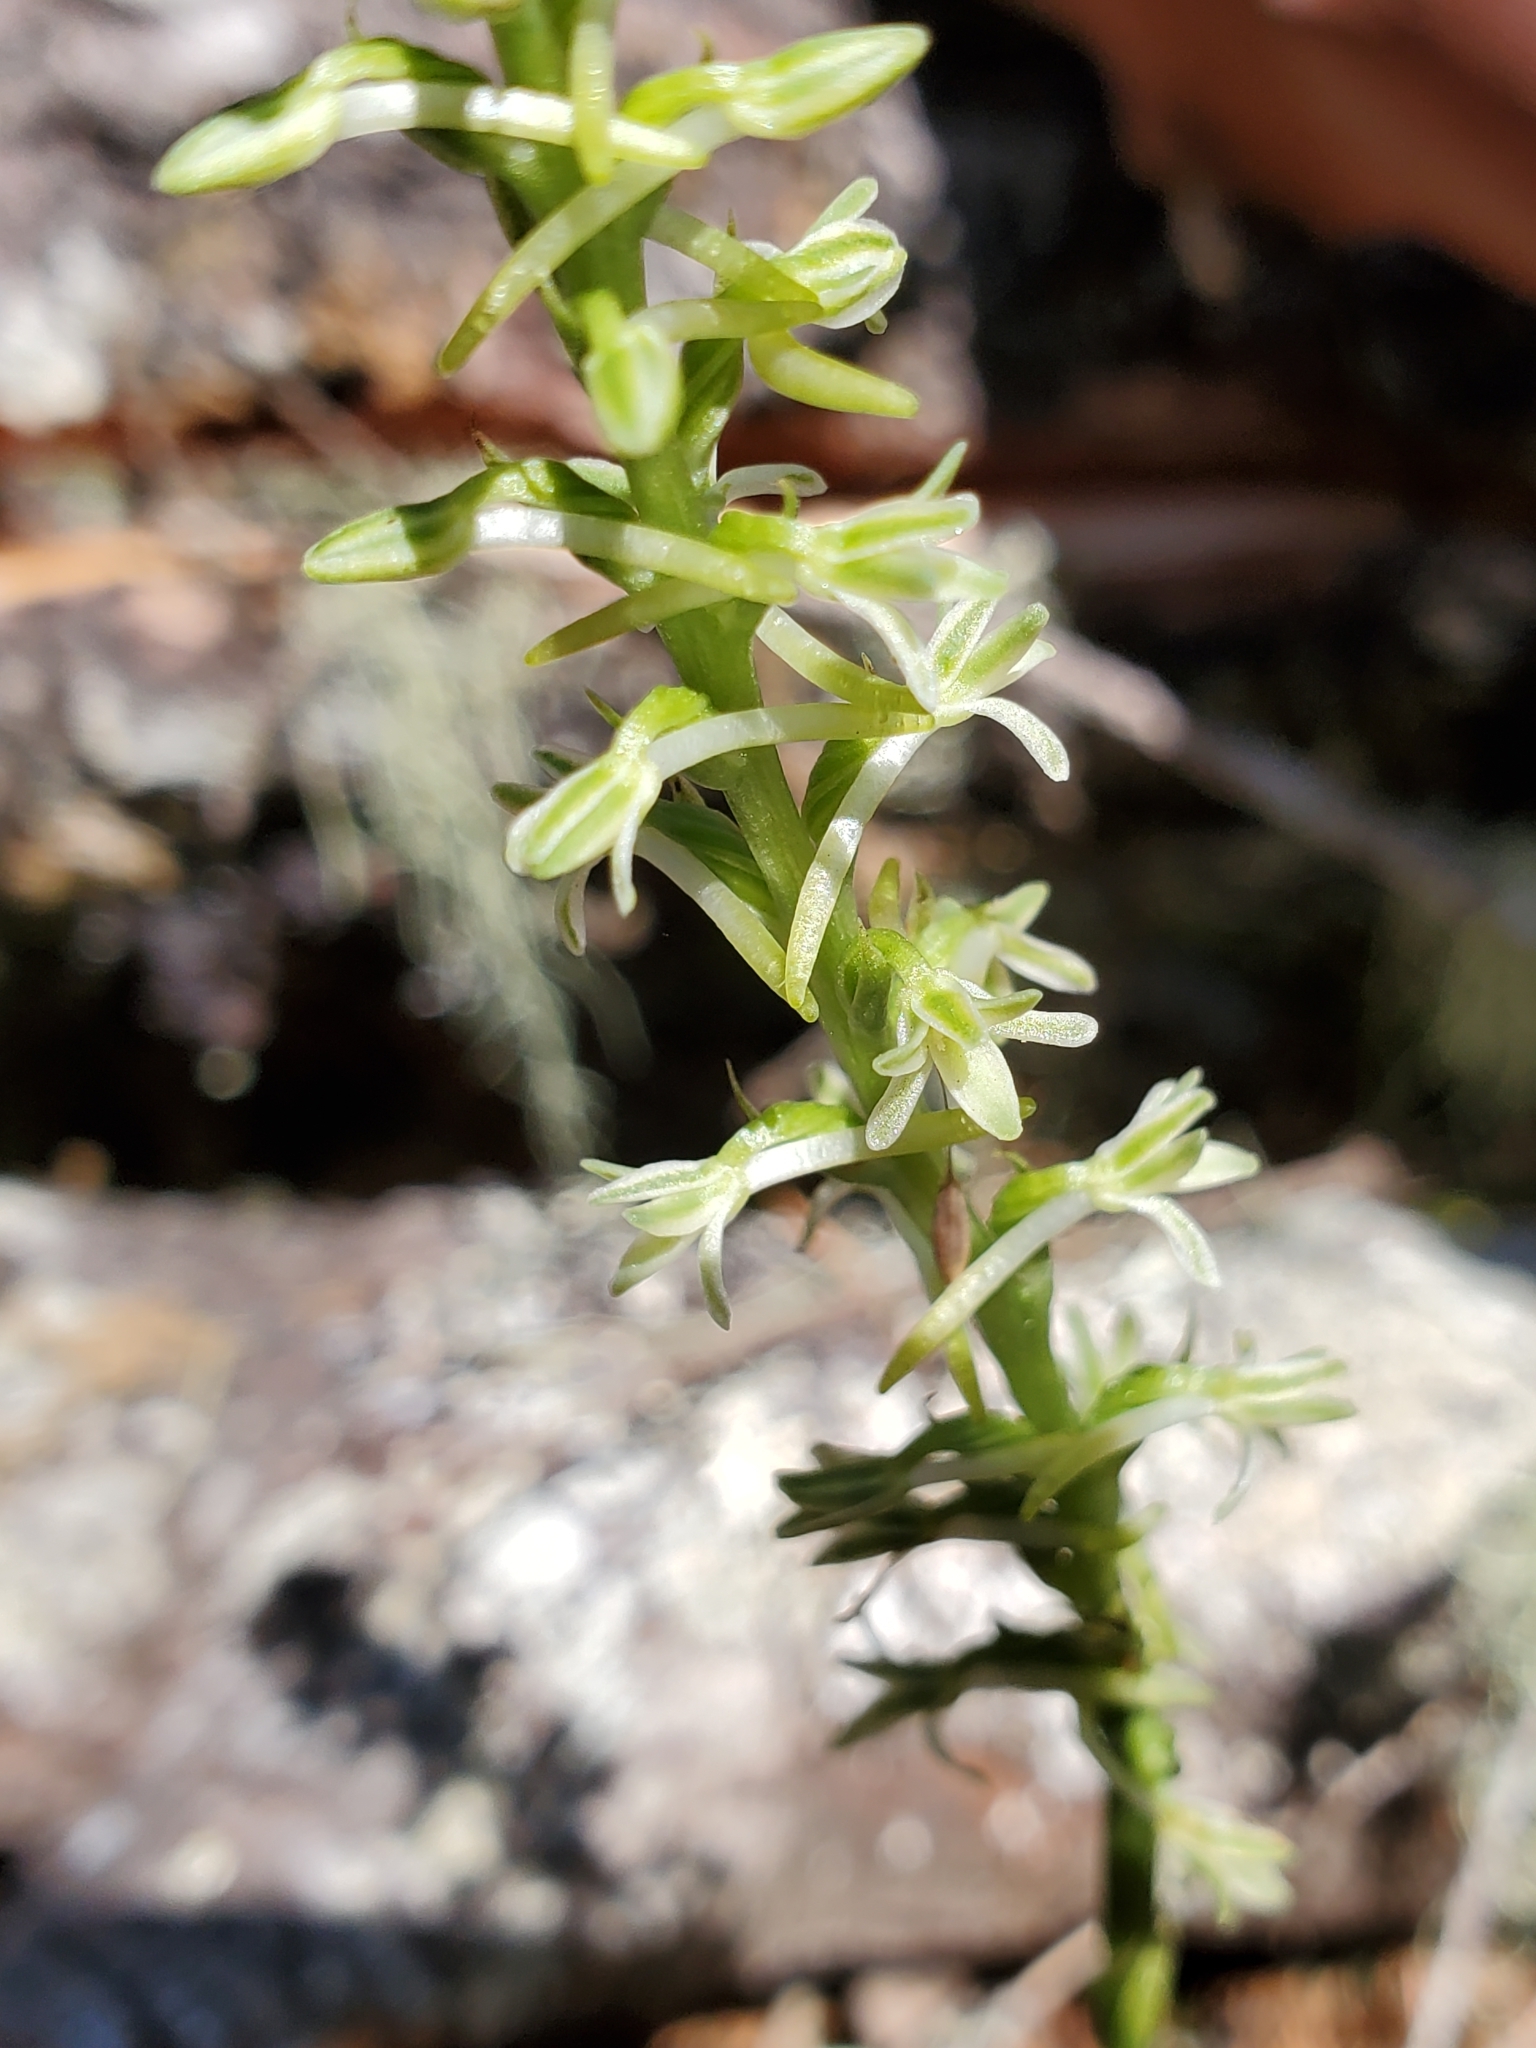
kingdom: Plantae
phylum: Tracheophyta
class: Liliopsida
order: Asparagales
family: Orchidaceae
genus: Platanthera
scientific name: Platanthera transversa
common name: Royal rein orchid
